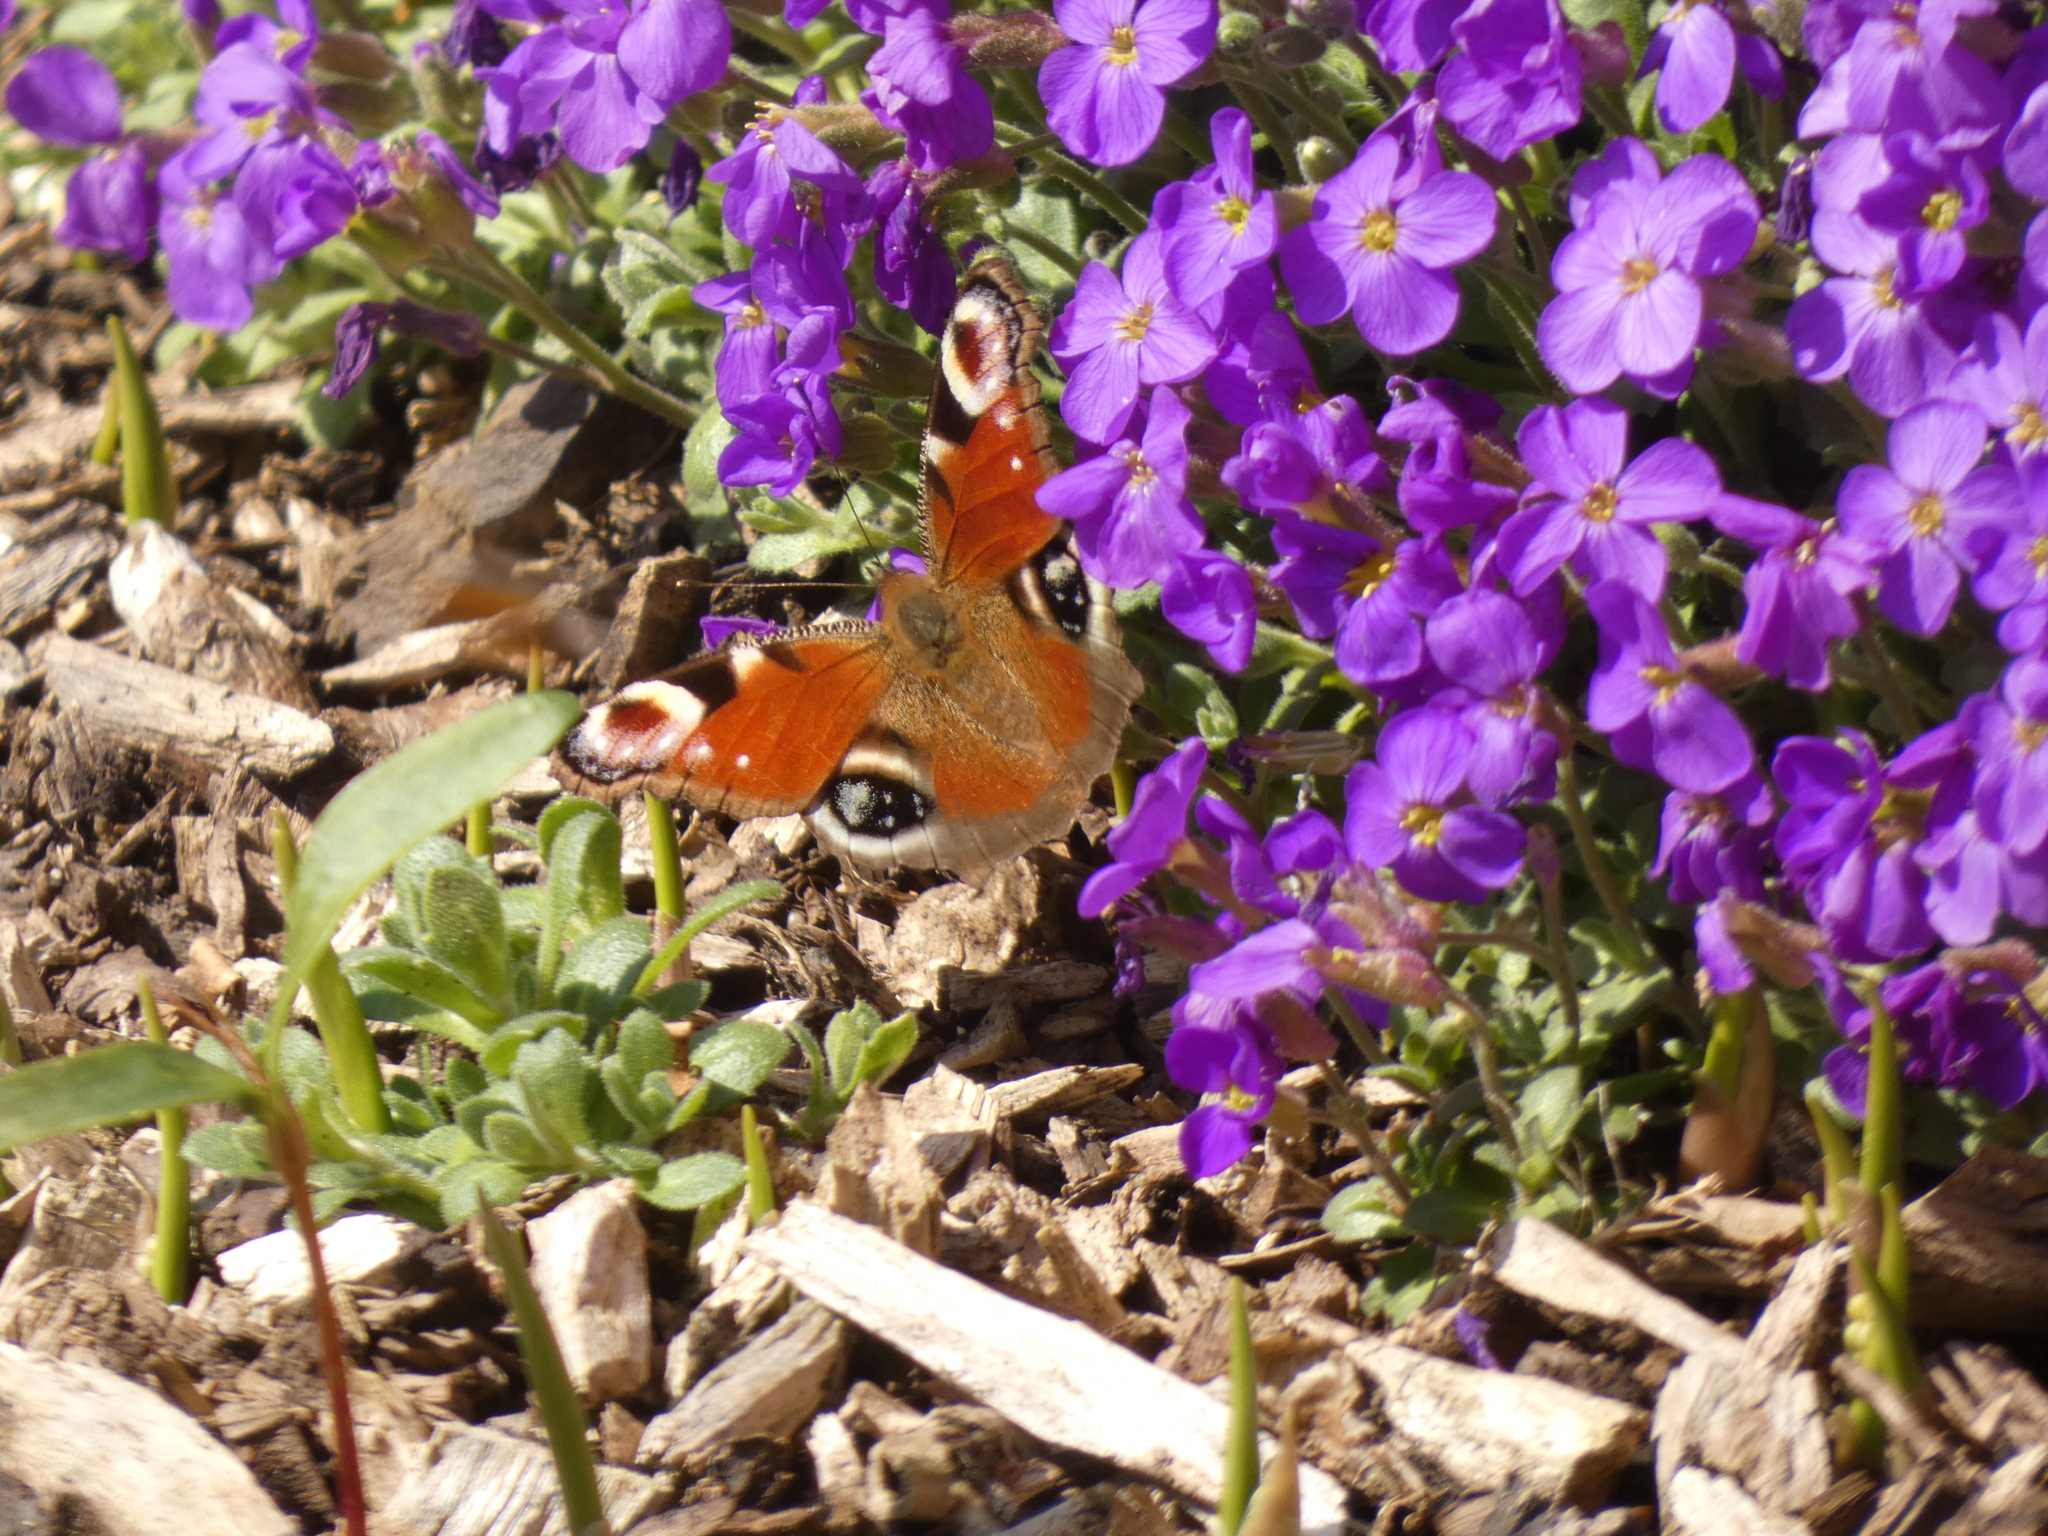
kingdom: Animalia
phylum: Arthropoda
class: Insecta
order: Lepidoptera
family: Nymphalidae
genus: Aglais
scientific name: Aglais io
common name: Peacock
